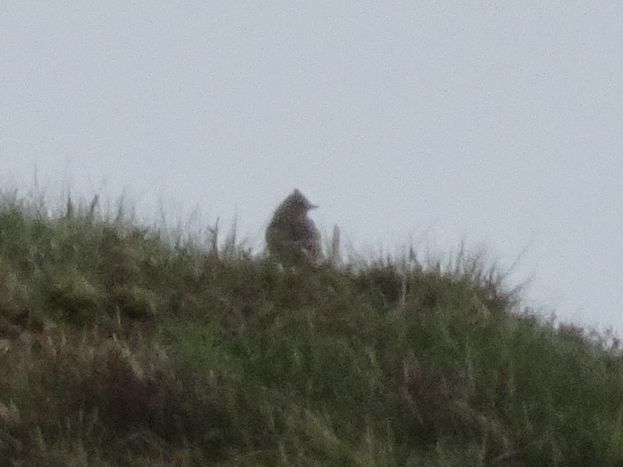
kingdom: Animalia
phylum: Chordata
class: Aves
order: Passeriformes
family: Alaudidae
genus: Alauda
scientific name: Alauda arvensis
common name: Eurasian skylark
